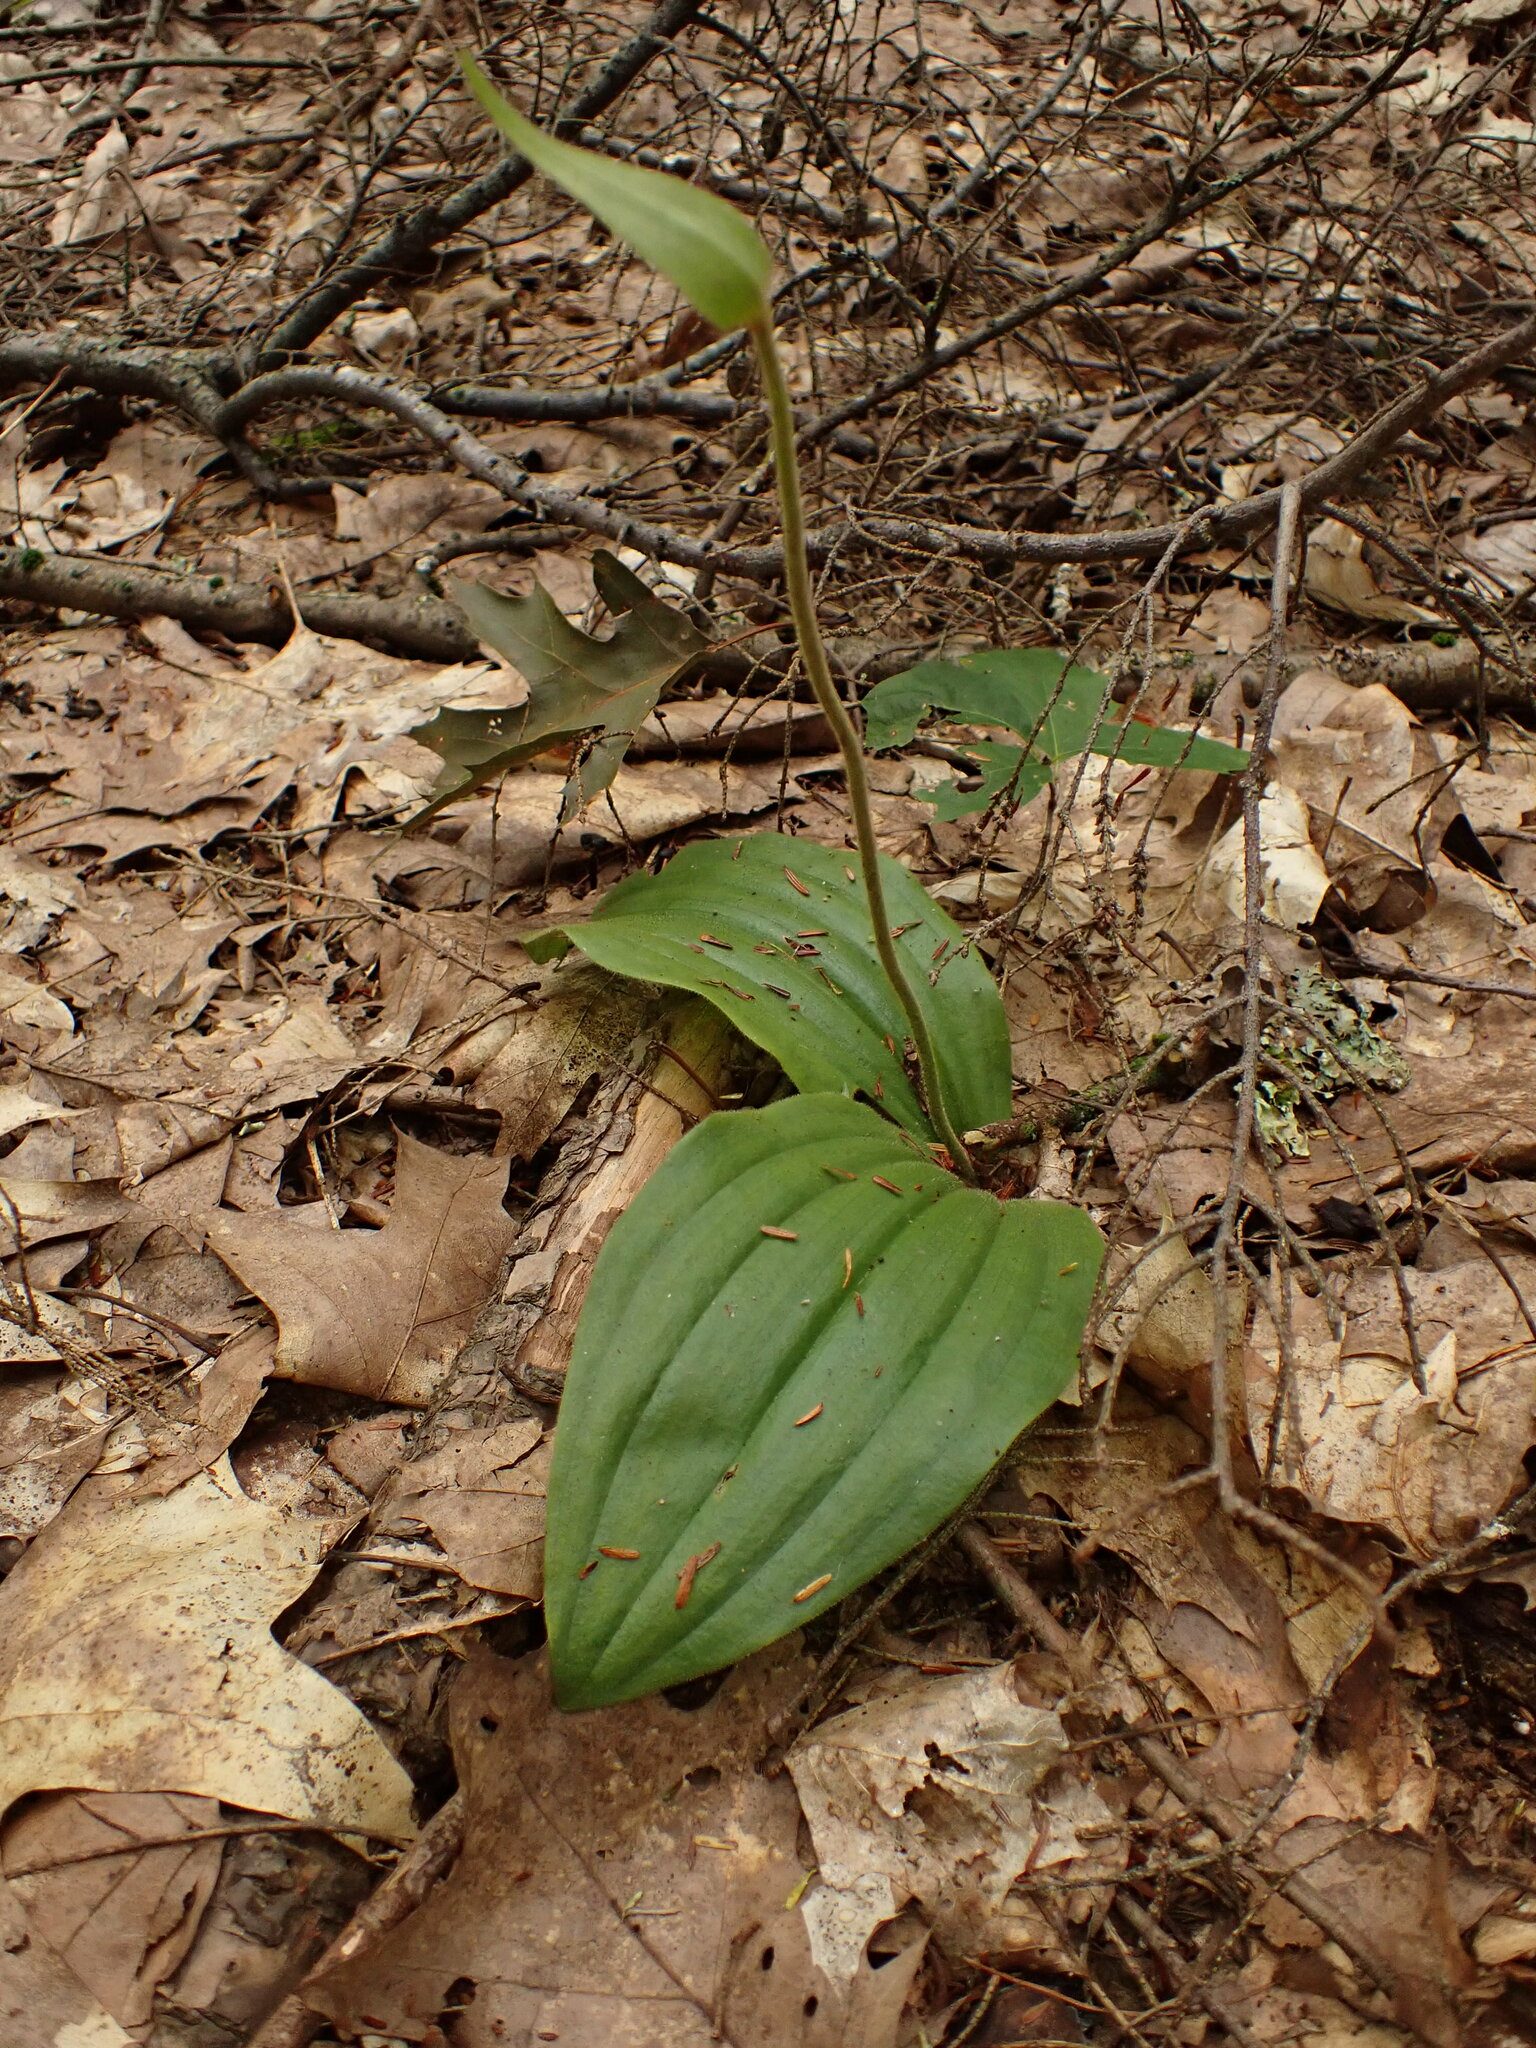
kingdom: Plantae
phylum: Tracheophyta
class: Liliopsida
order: Asparagales
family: Orchidaceae
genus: Cypripedium
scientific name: Cypripedium acaule
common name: Pink lady's-slipper
